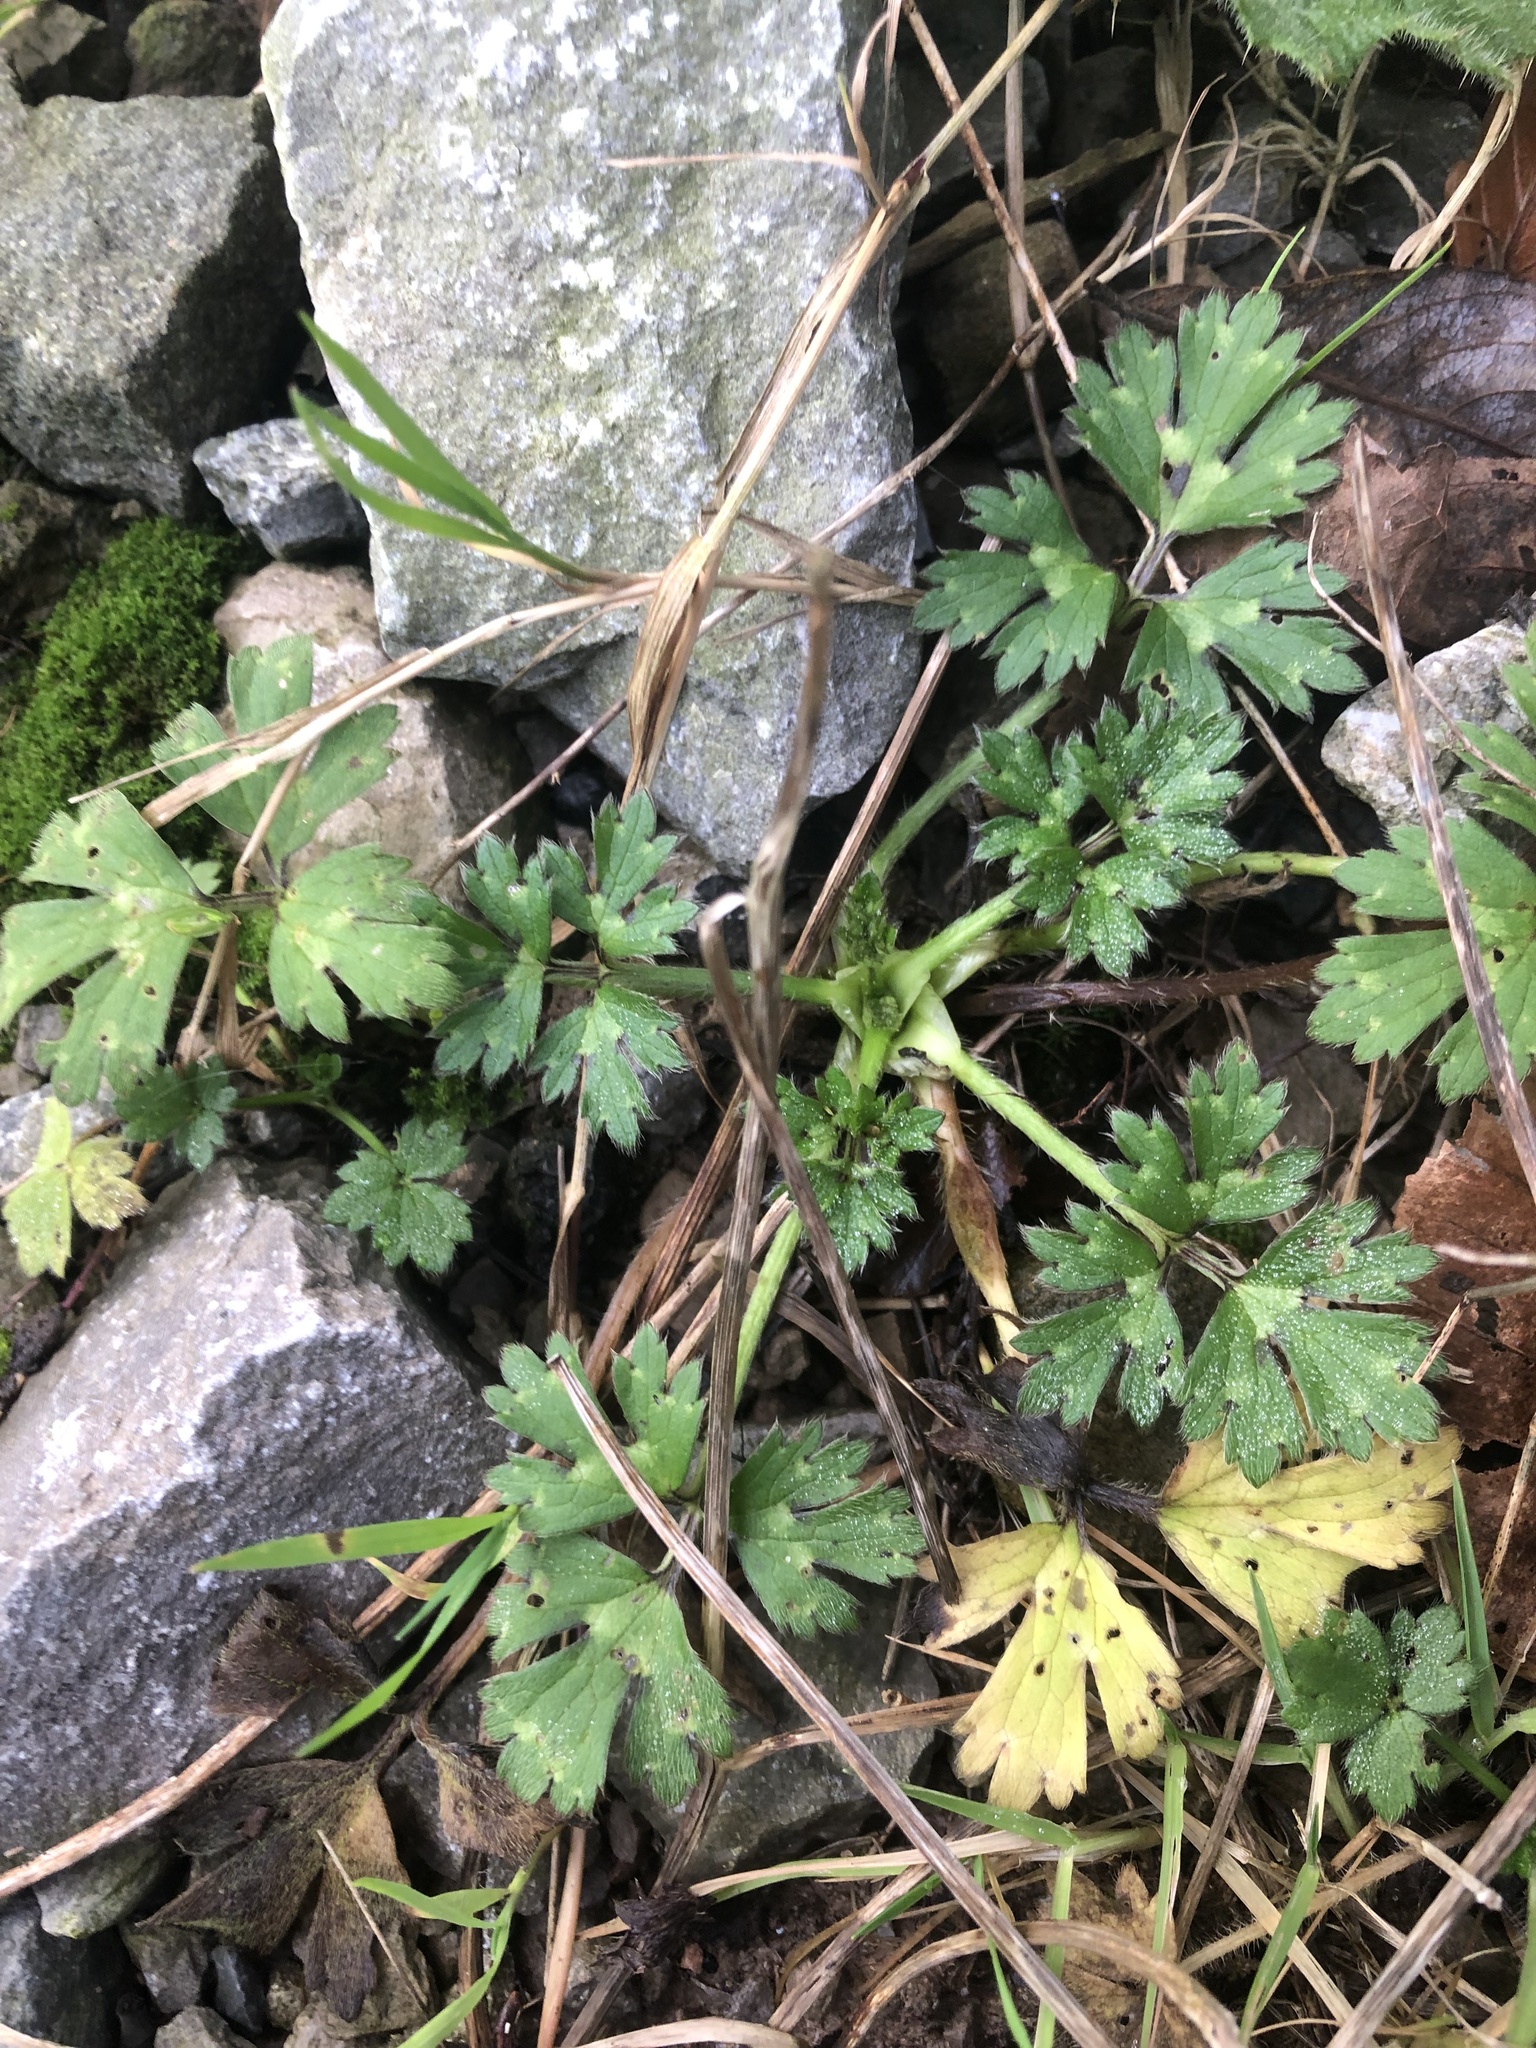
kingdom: Plantae
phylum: Tracheophyta
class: Magnoliopsida
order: Ranunculales
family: Ranunculaceae
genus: Ranunculus
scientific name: Ranunculus repens
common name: Creeping buttercup
